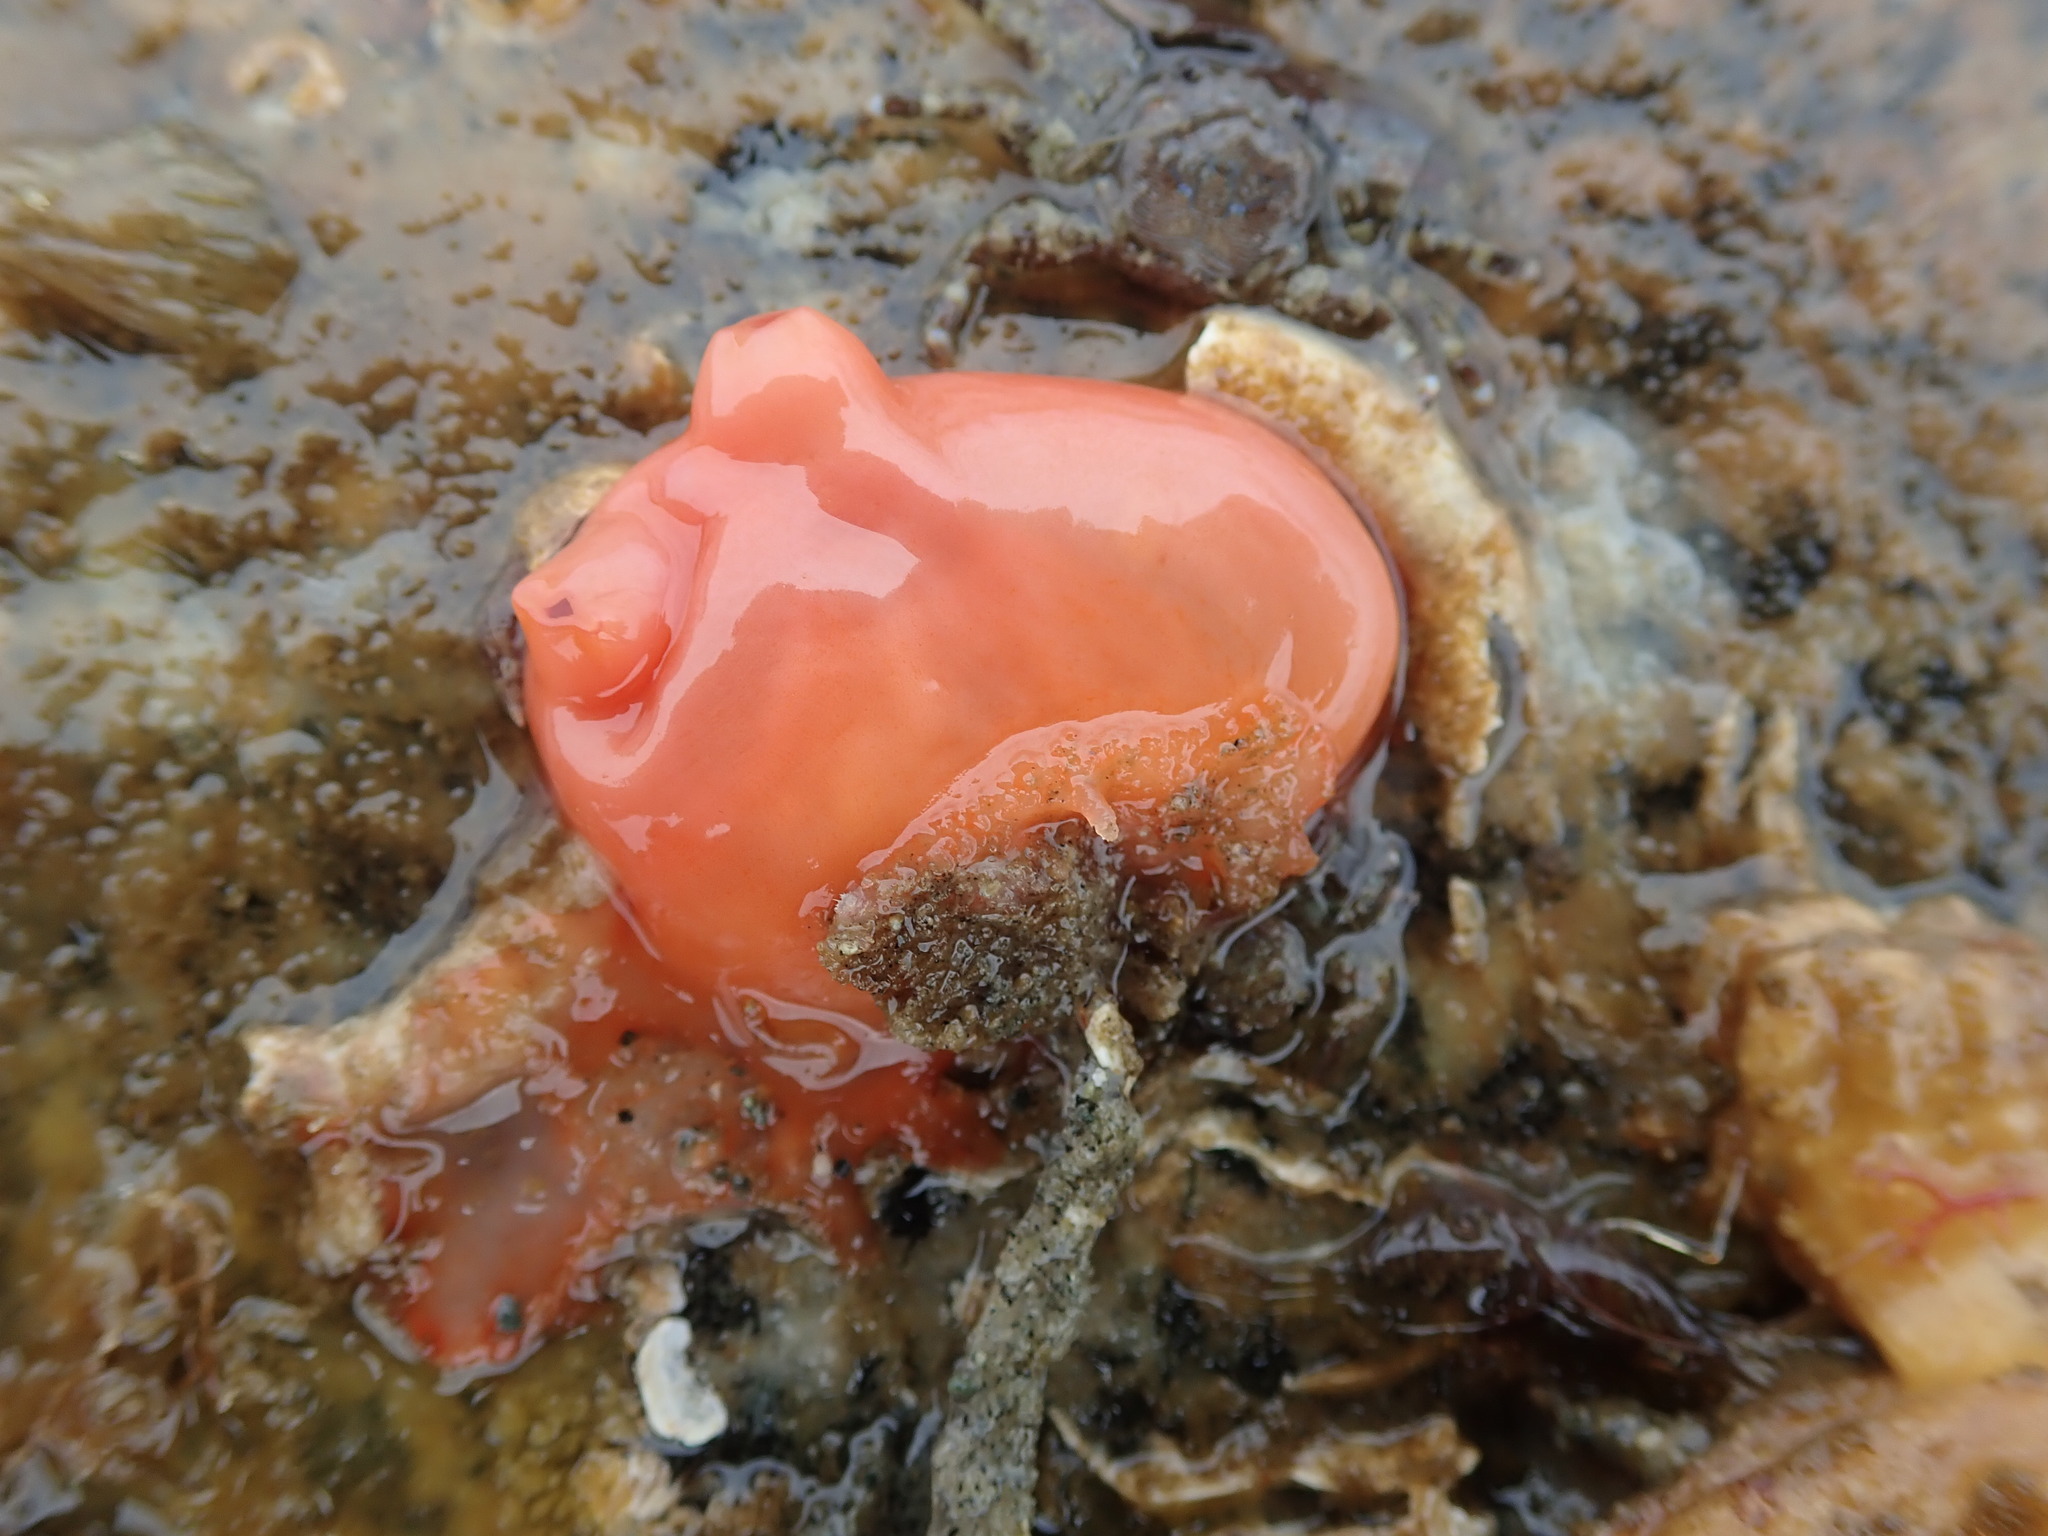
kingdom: Animalia
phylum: Chordata
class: Ascidiacea
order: Stolidobranchia
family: Styelidae
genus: Cnemidocarpa
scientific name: Cnemidocarpa finmarkiensis
